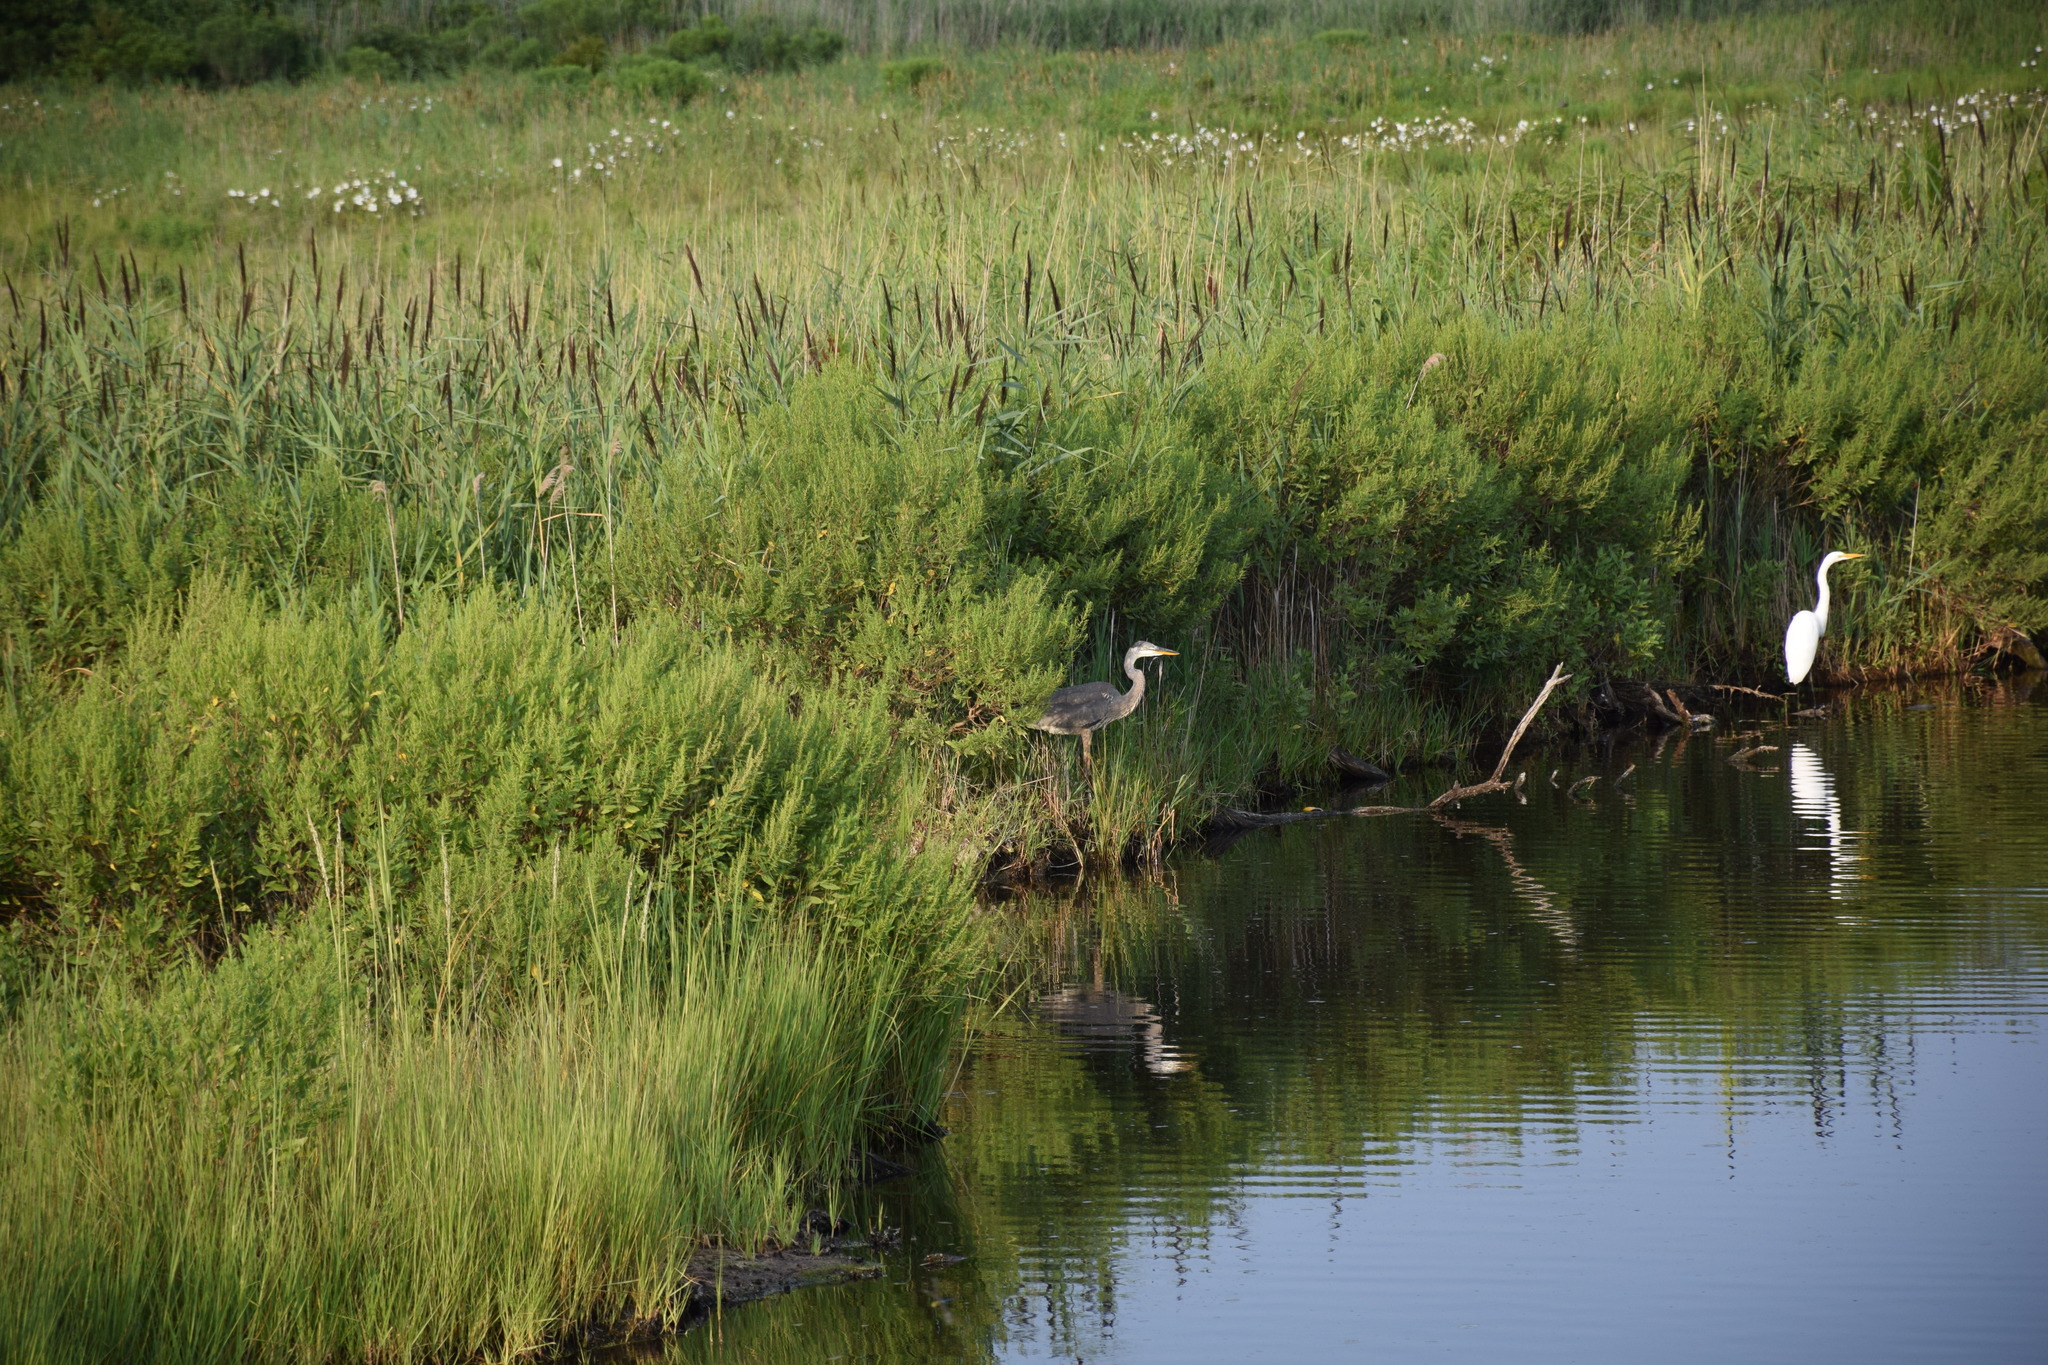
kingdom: Animalia
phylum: Chordata
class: Aves
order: Pelecaniformes
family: Ardeidae
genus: Ardea
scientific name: Ardea herodias
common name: Great blue heron
